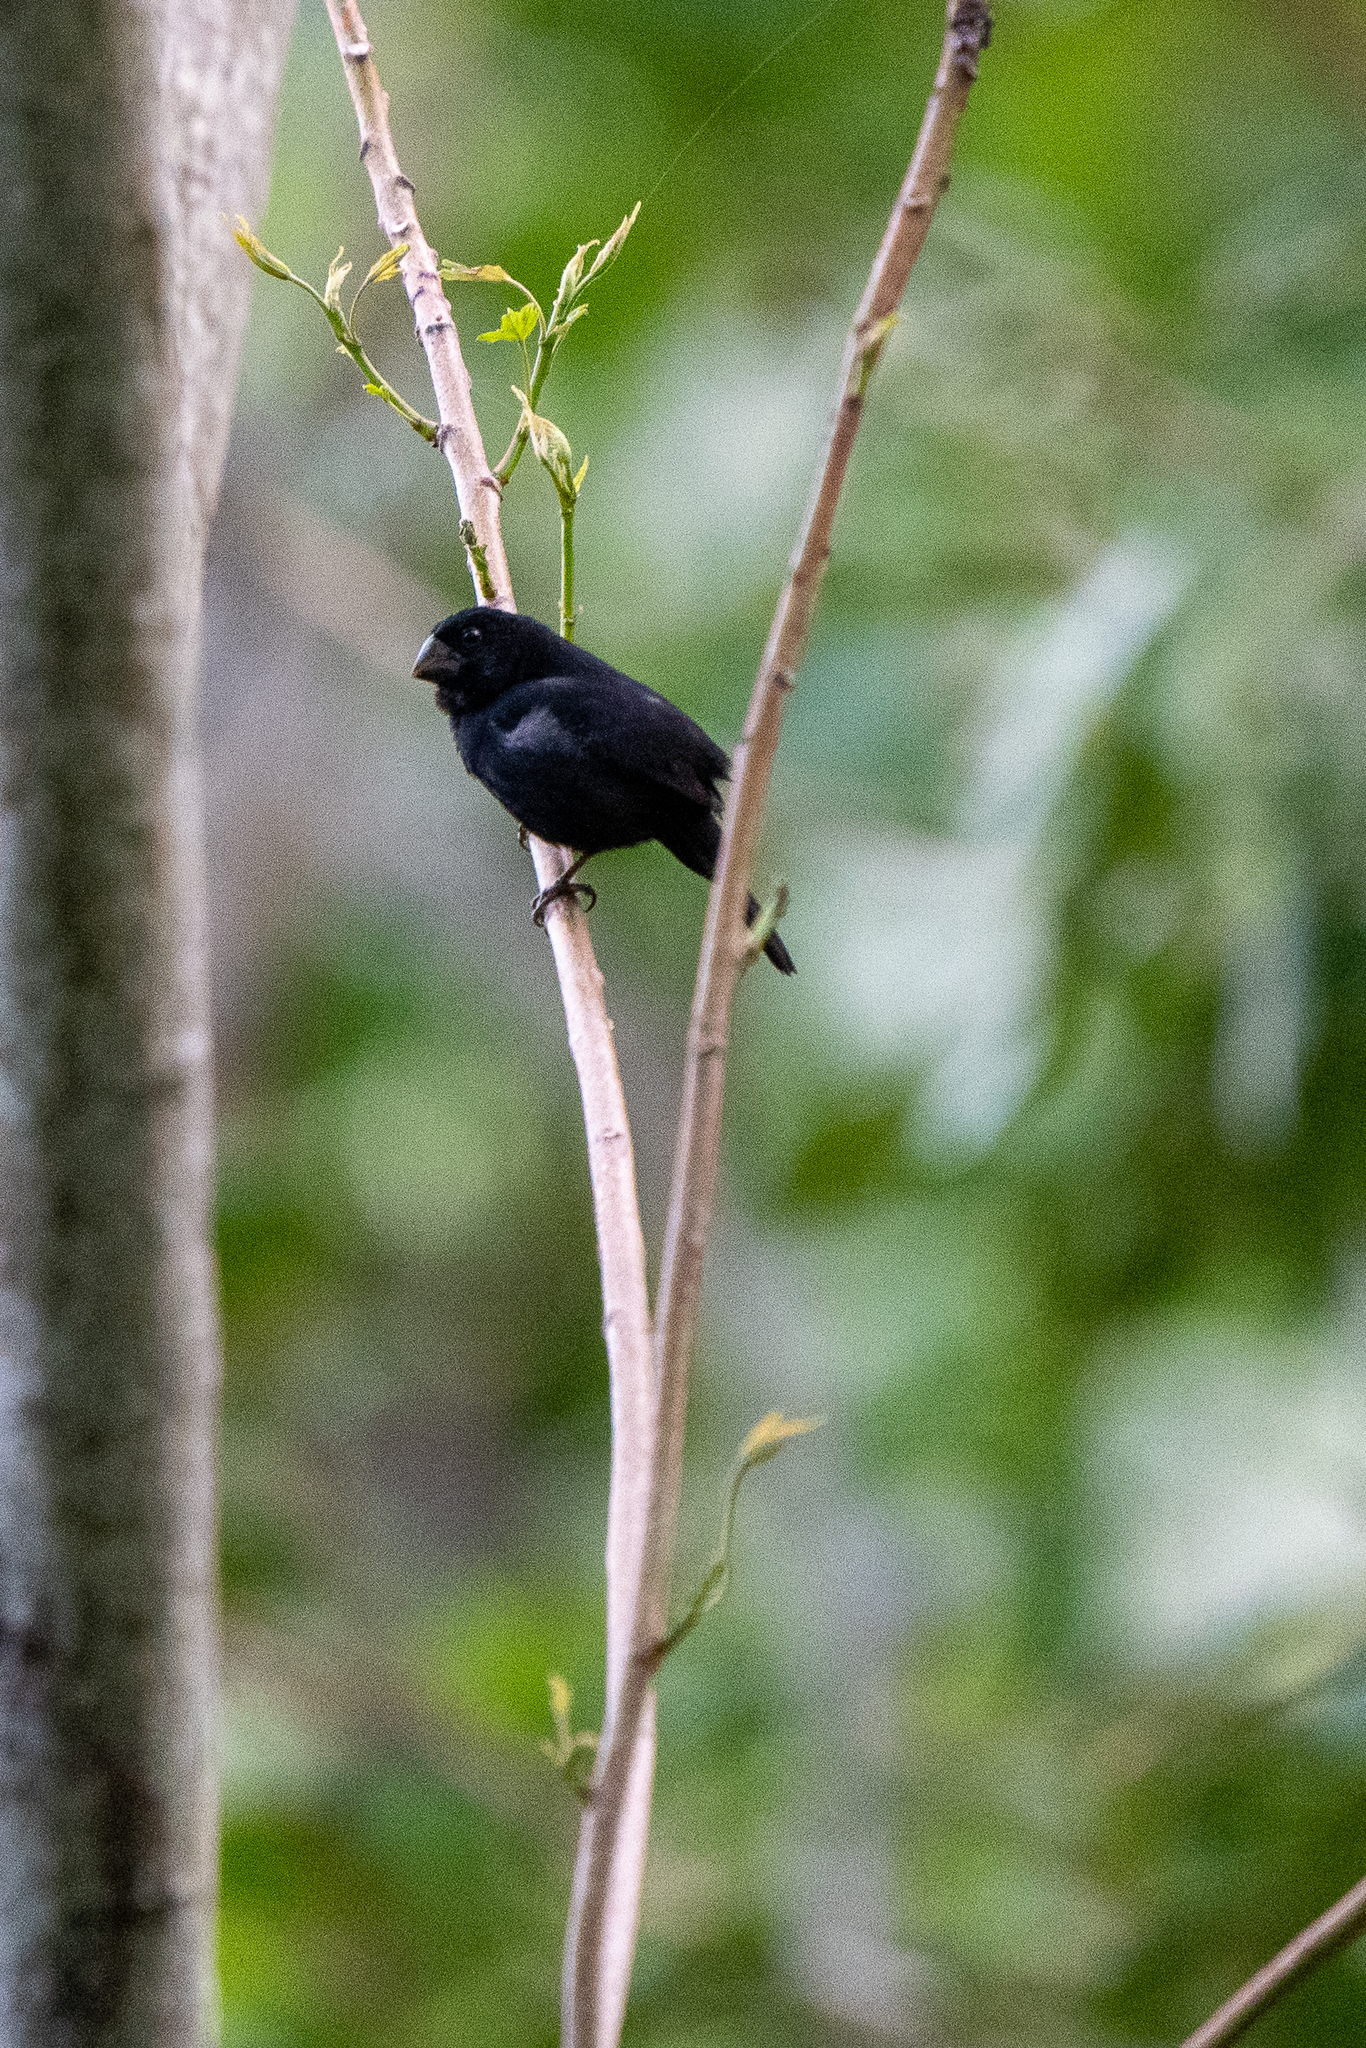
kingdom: Animalia
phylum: Chordata
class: Aves
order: Passeriformes
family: Thraupidae
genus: Sporophila
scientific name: Sporophila funerea
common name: Thick-billed seed-finch
